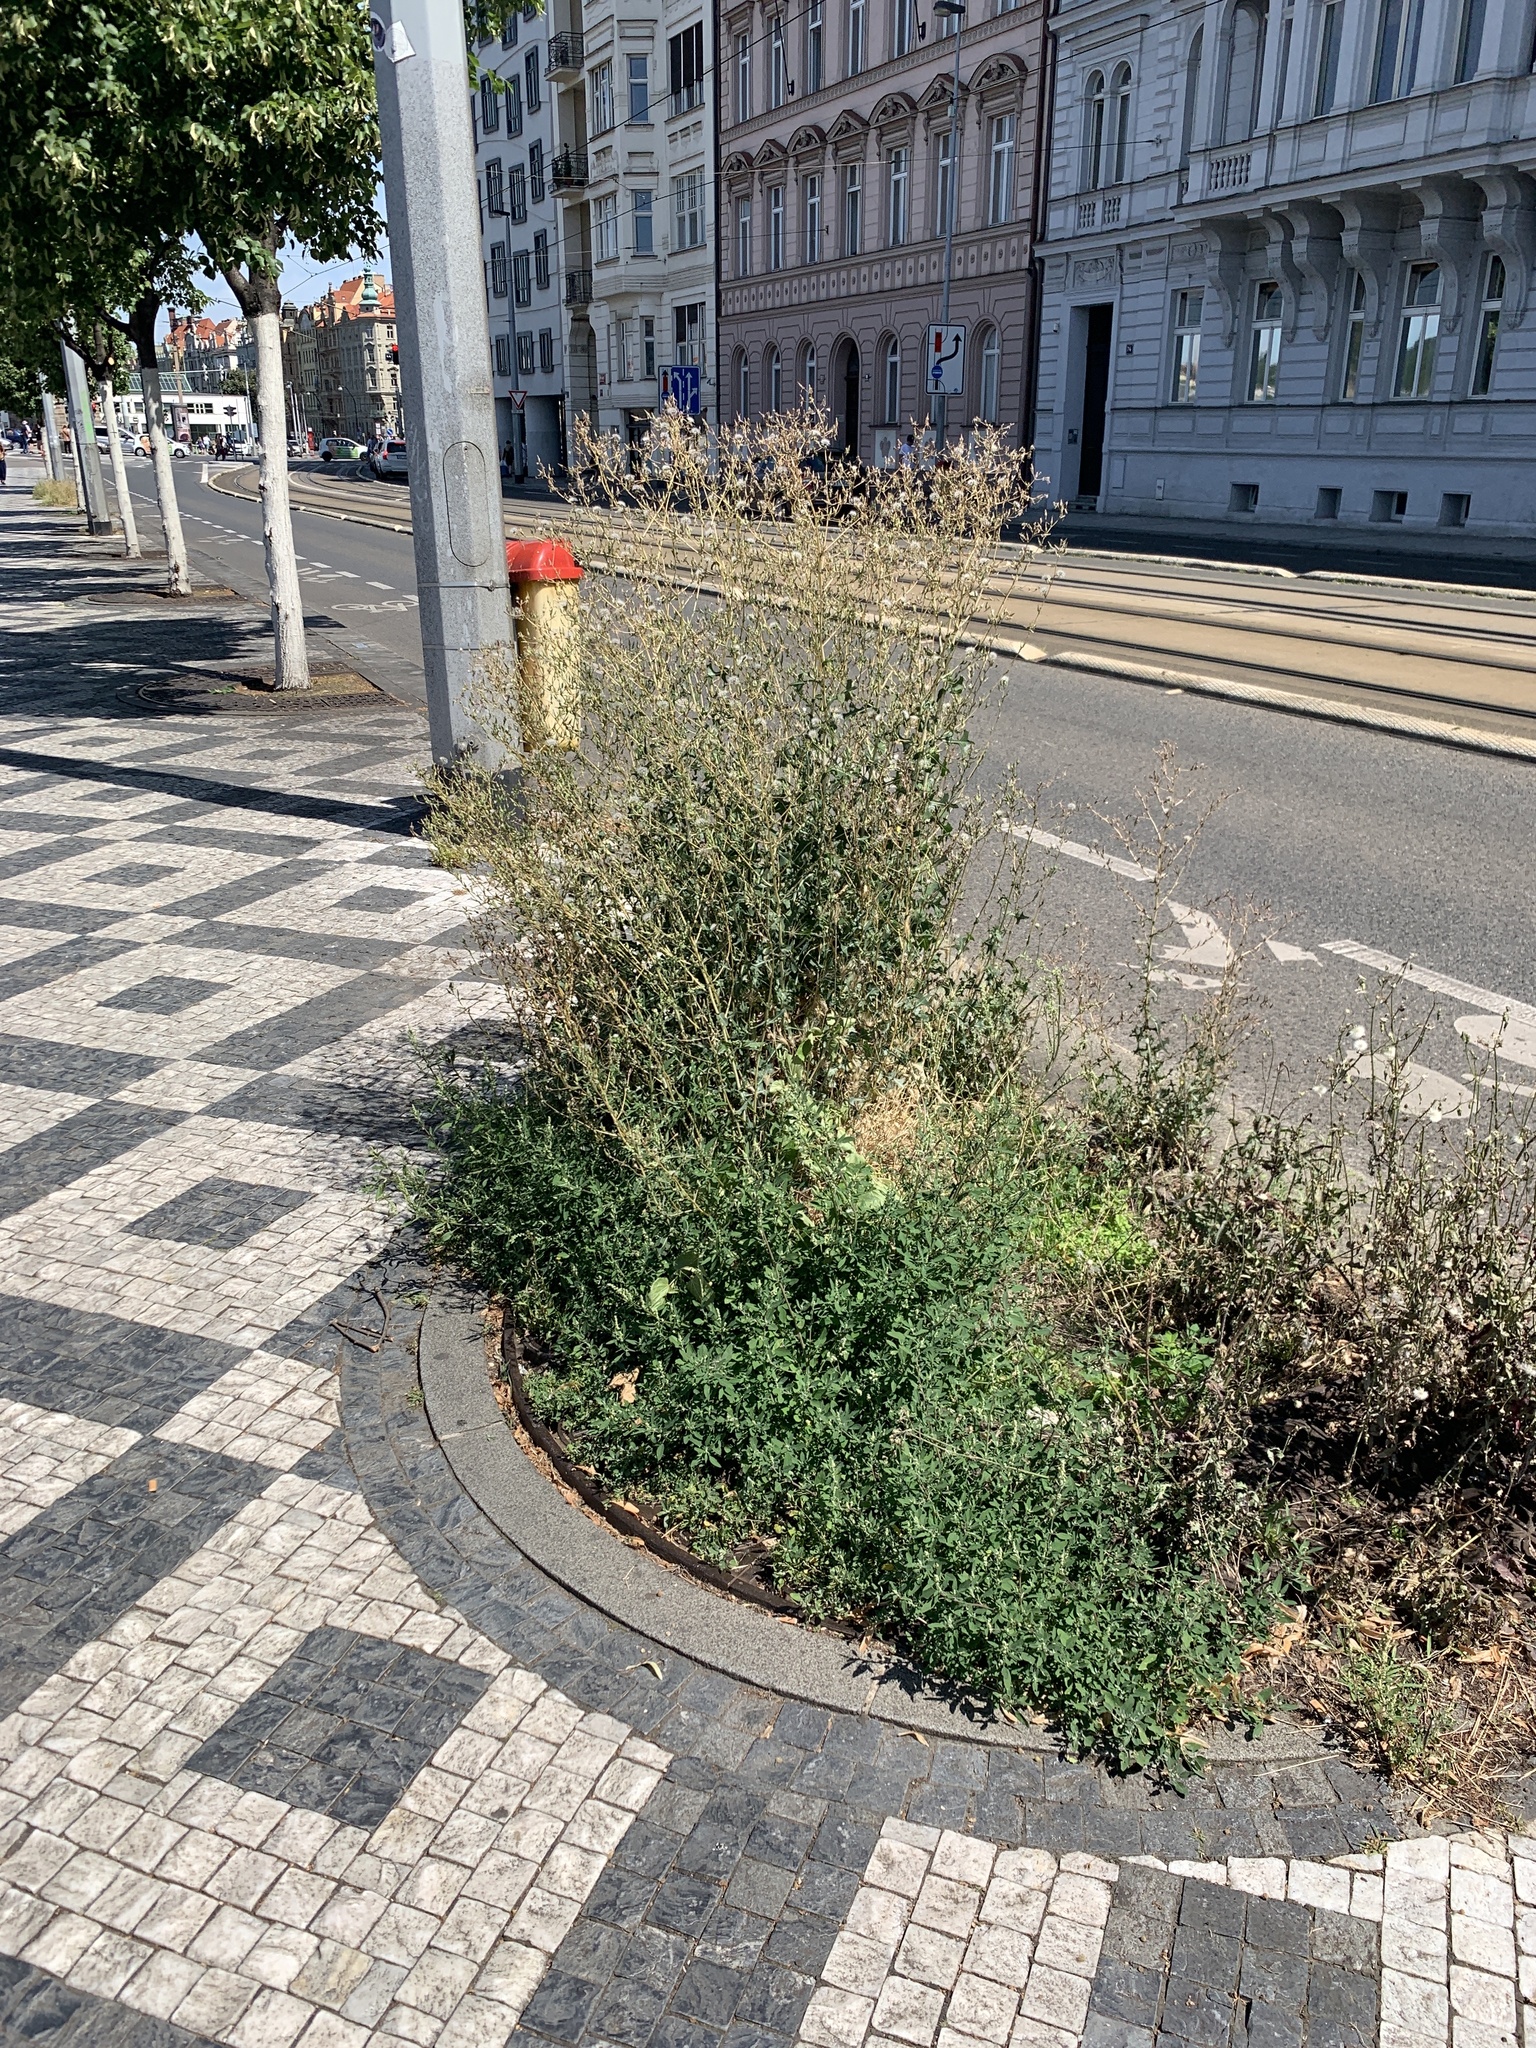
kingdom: Plantae
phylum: Tracheophyta
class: Magnoliopsida
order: Asterales
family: Asteraceae
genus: Lactuca
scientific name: Lactuca serriola
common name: Prickly lettuce
